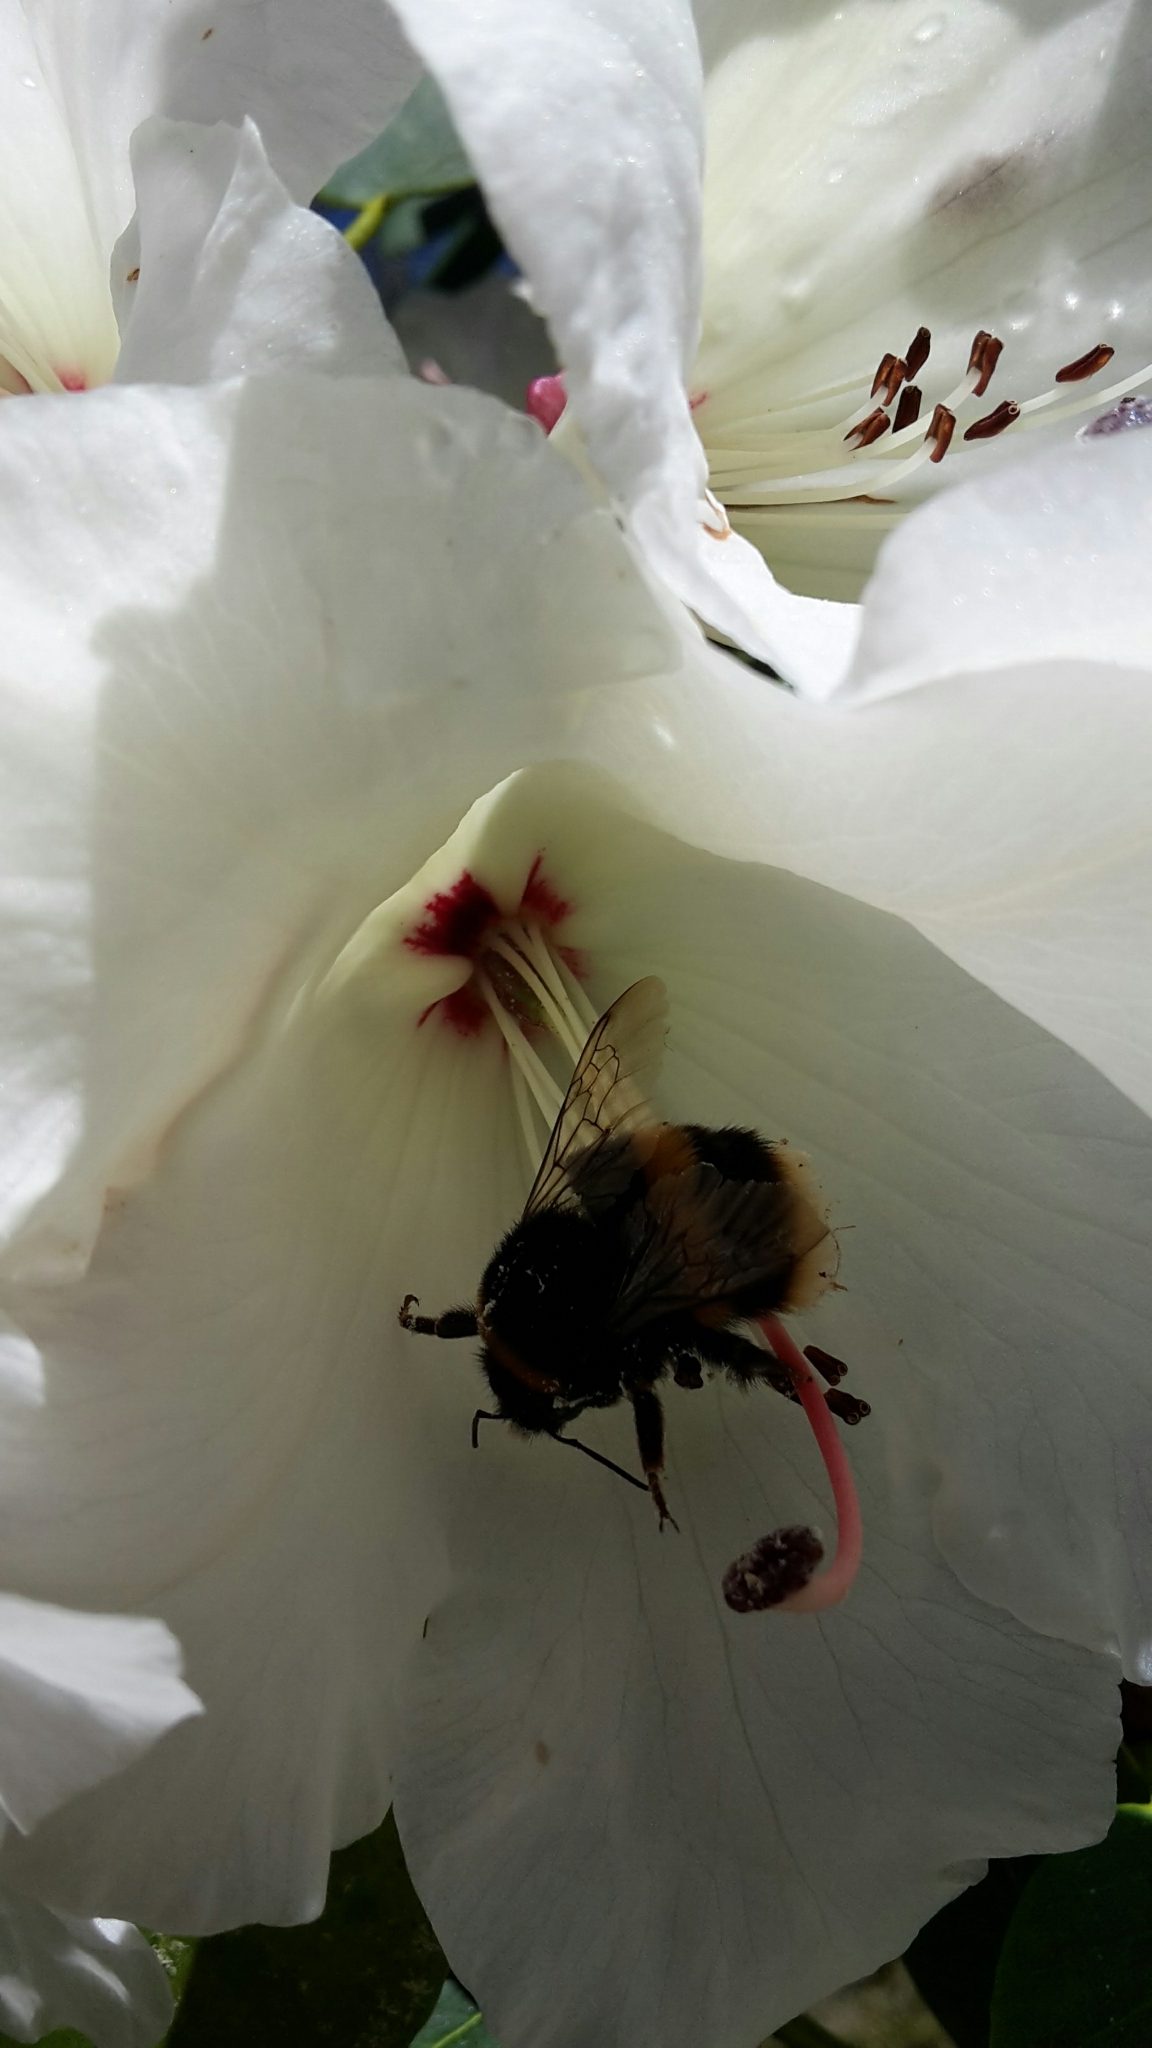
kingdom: Animalia
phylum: Arthropoda
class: Insecta
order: Hymenoptera
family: Apidae
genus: Bombus
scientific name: Bombus terrestris
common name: Buff-tailed bumblebee
